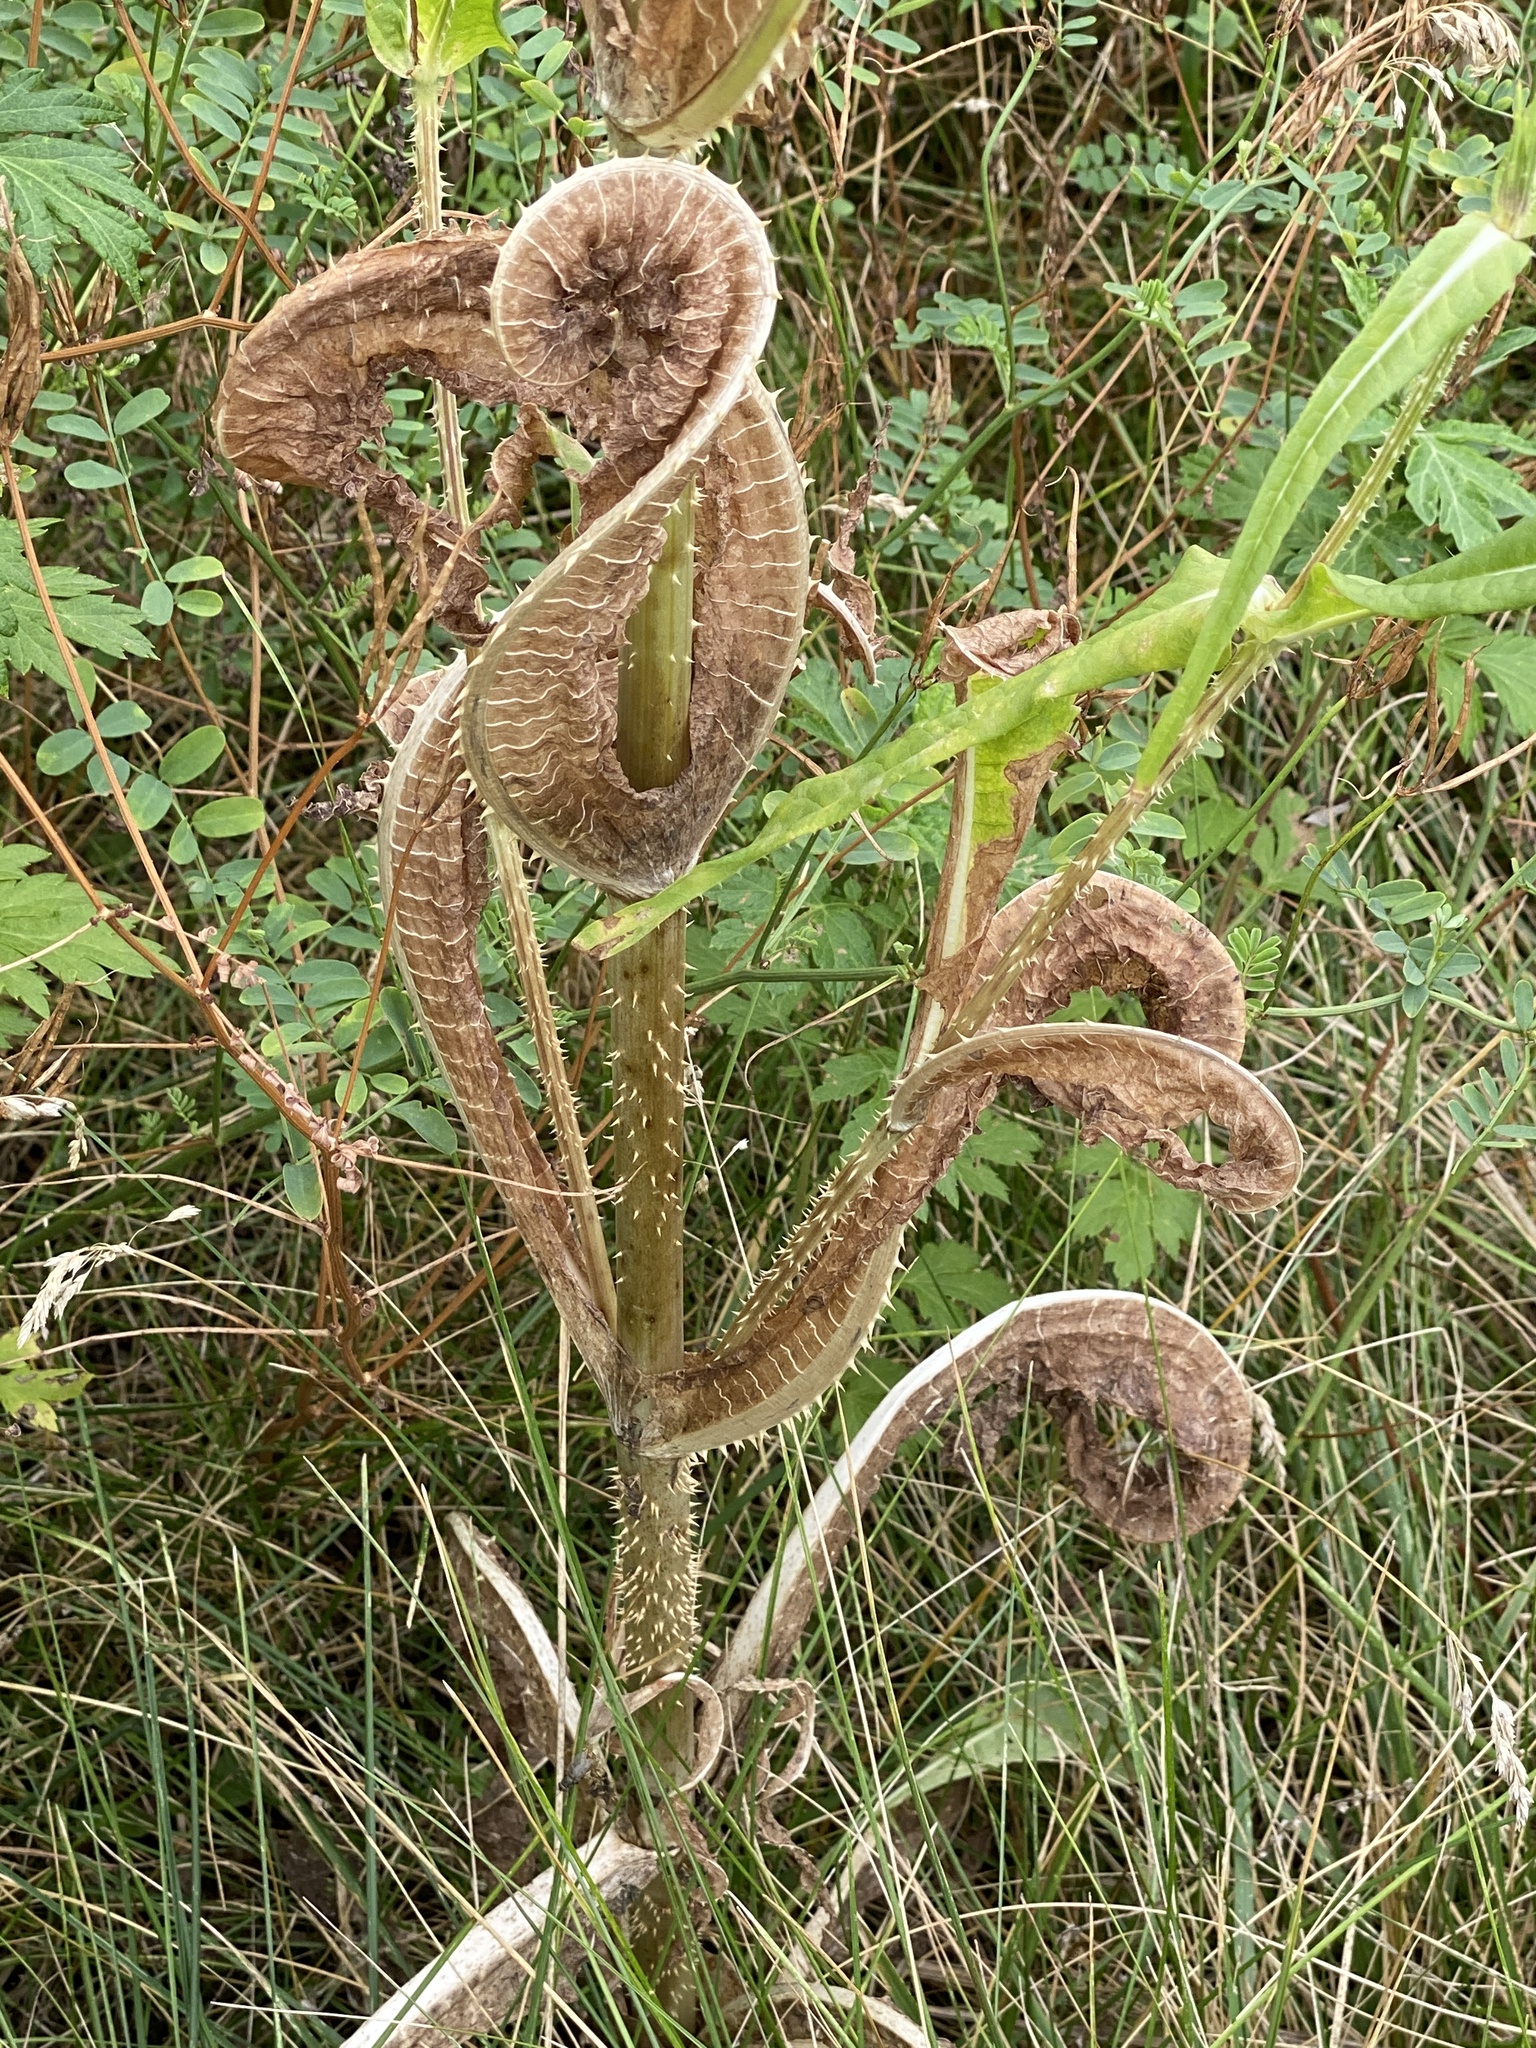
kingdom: Plantae
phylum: Tracheophyta
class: Magnoliopsida
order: Dipsacales
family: Caprifoliaceae
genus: Dipsacus
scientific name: Dipsacus fullonum
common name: Teasel
